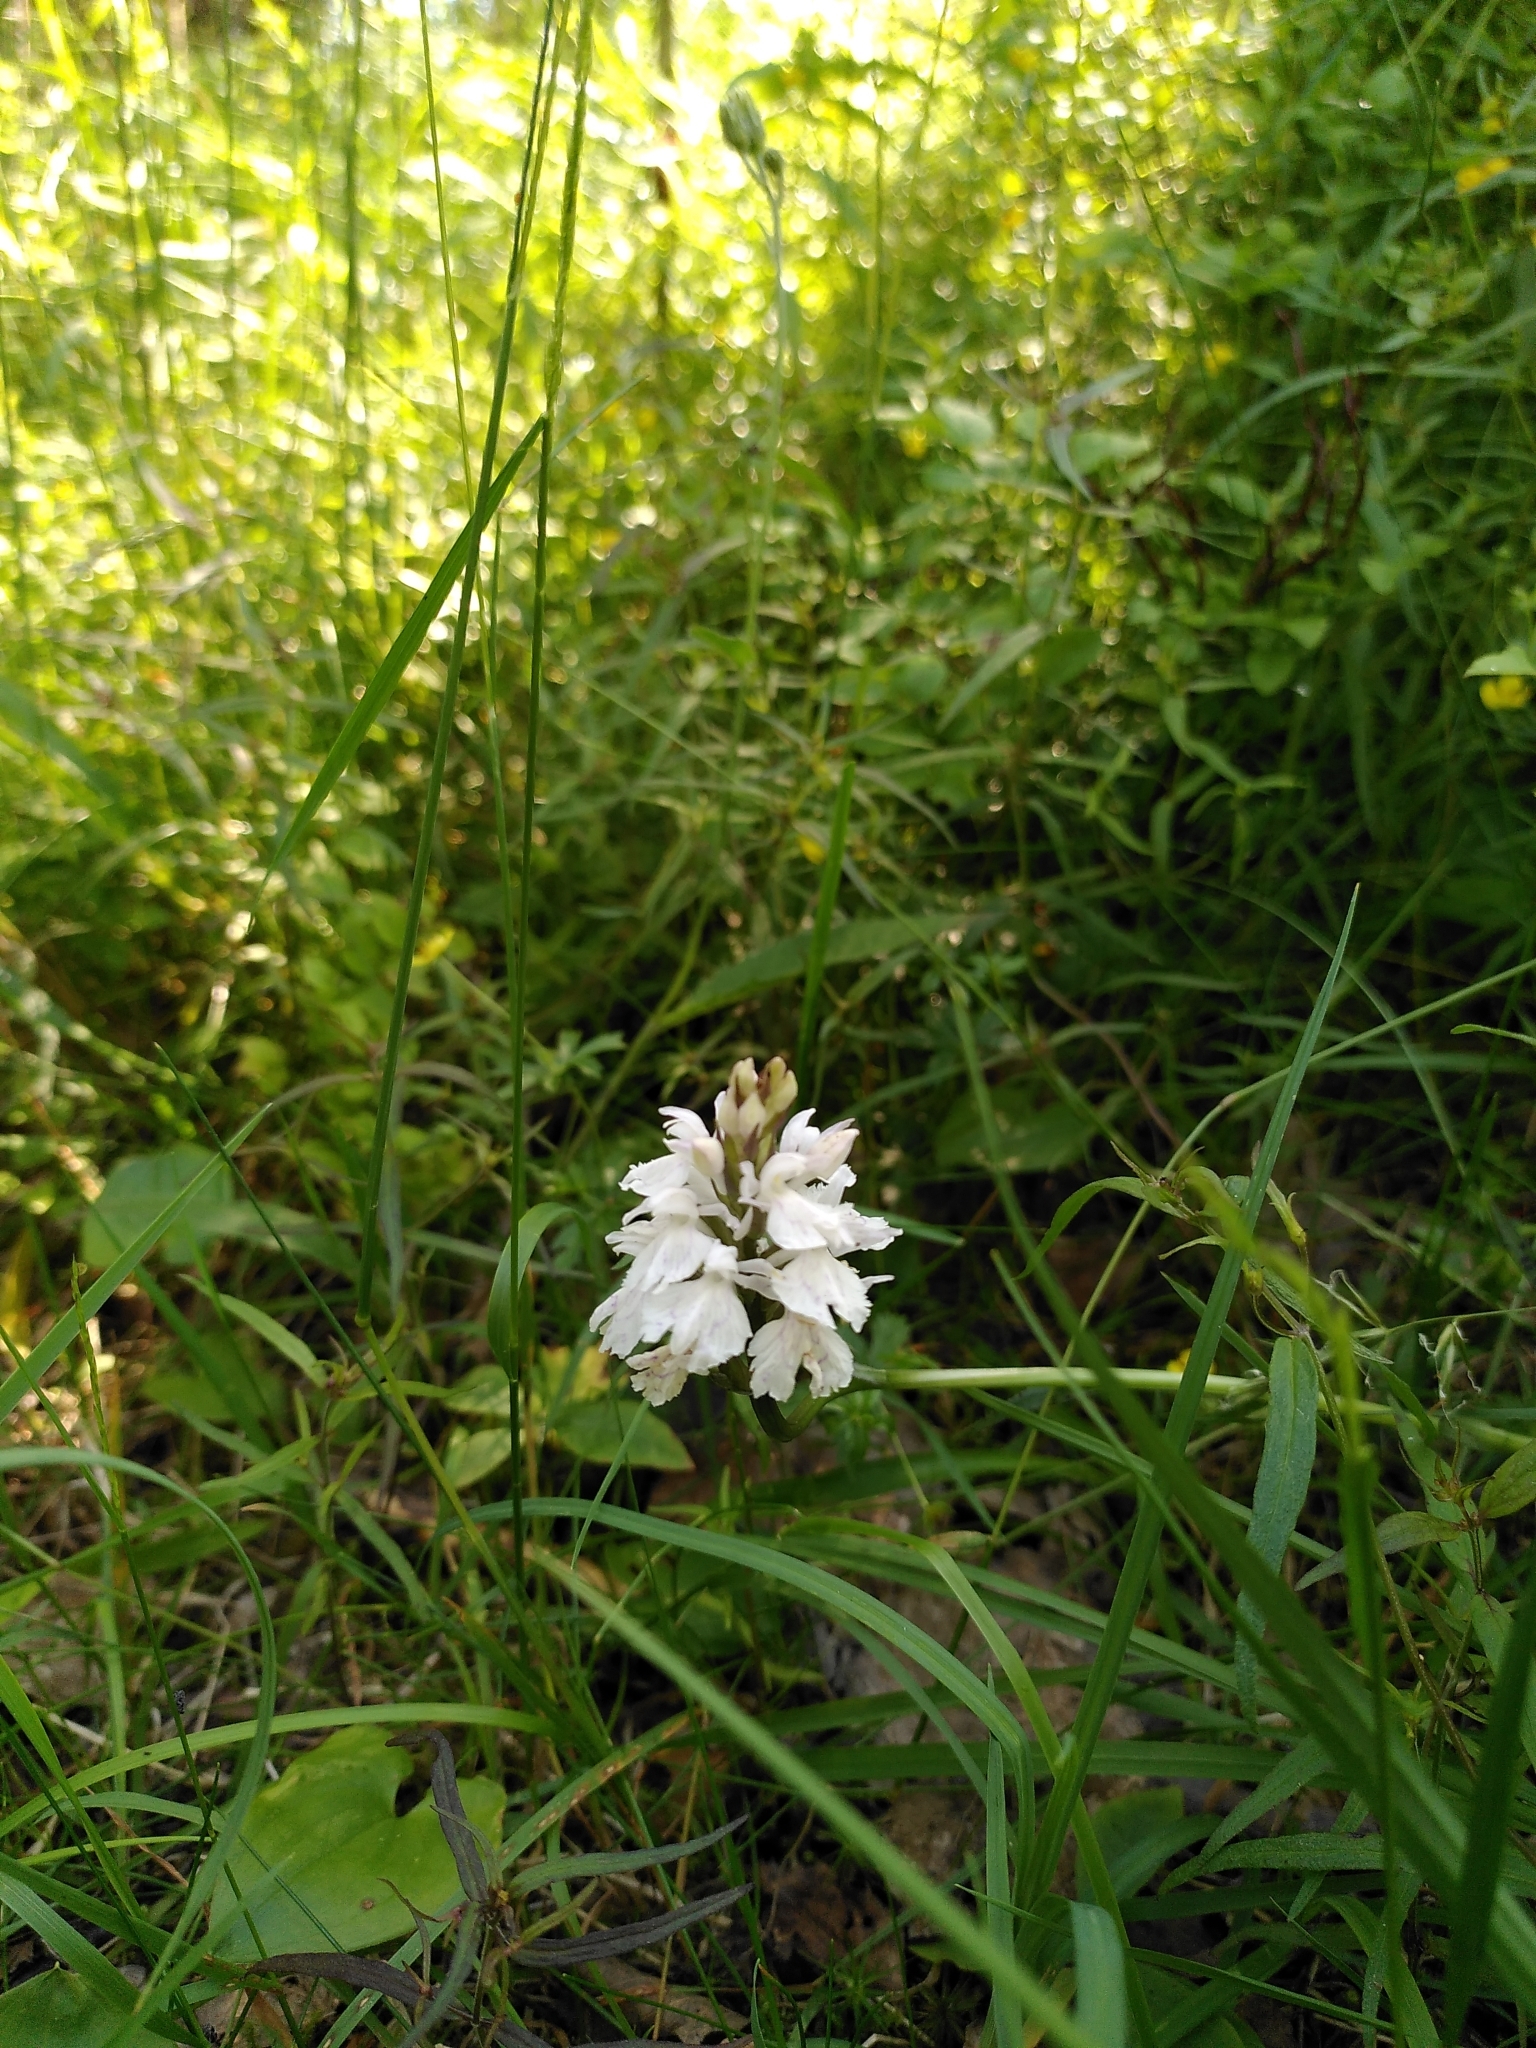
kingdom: Plantae
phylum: Tracheophyta
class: Liliopsida
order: Asparagales
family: Orchidaceae
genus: Dactylorhiza
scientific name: Dactylorhiza maculata
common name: Heath spotted-orchid
